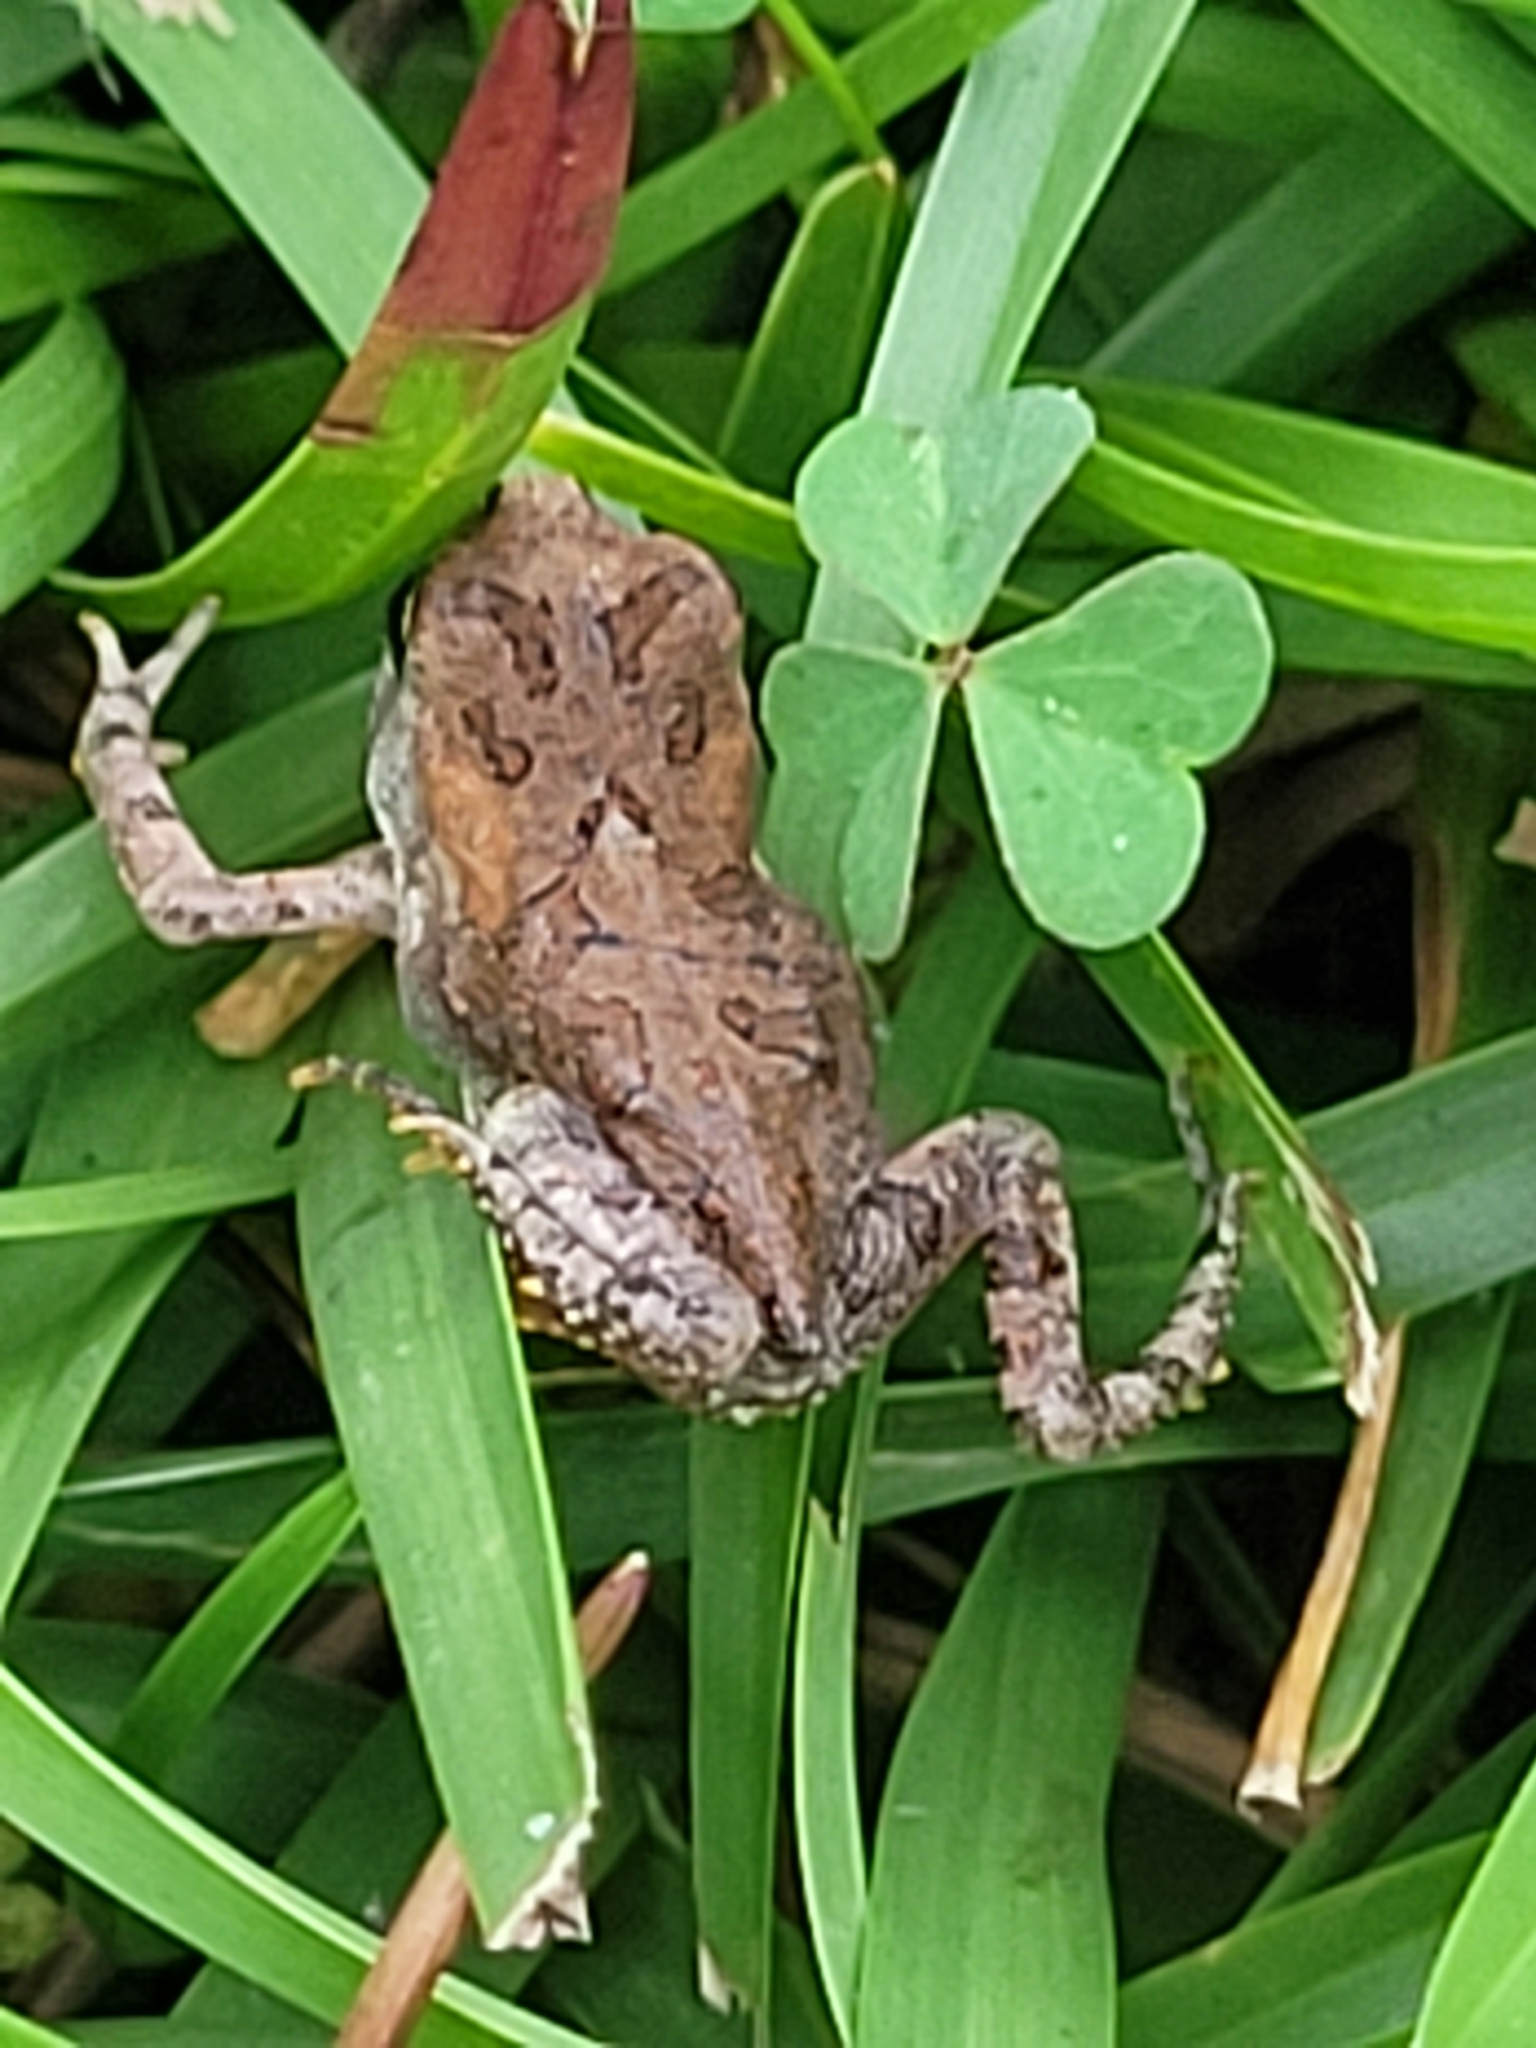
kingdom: Animalia
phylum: Chordata
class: Amphibia
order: Anura
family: Bufonidae
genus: Anaxyrus
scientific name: Anaxyrus terrestris
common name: Southern toad
